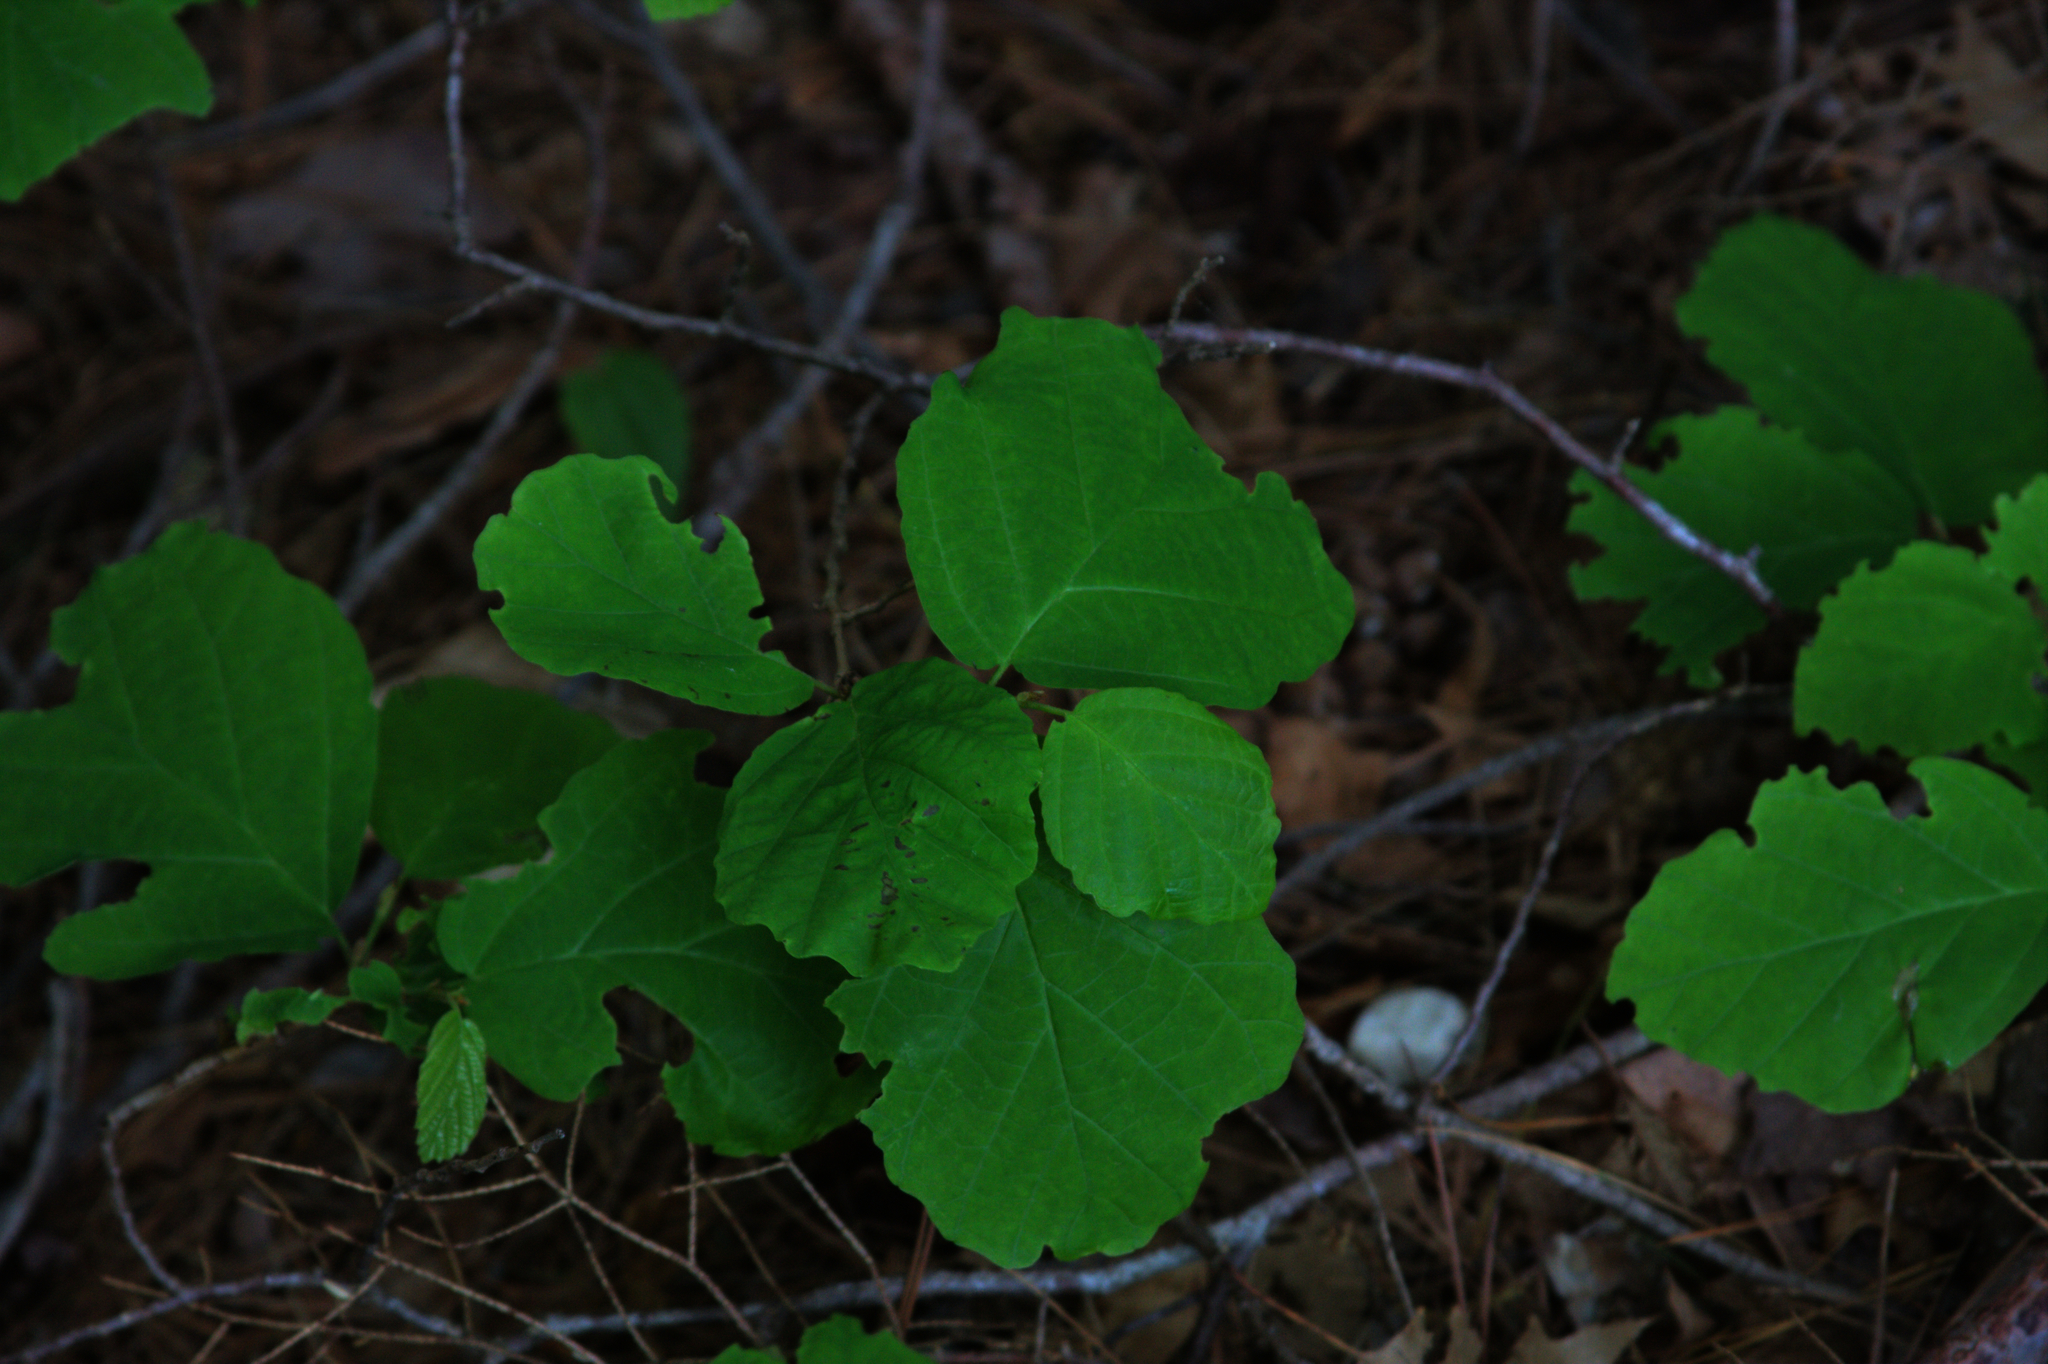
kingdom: Plantae
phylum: Tracheophyta
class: Magnoliopsida
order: Saxifragales
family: Hamamelidaceae
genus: Hamamelis
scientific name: Hamamelis virginiana
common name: Witch-hazel
